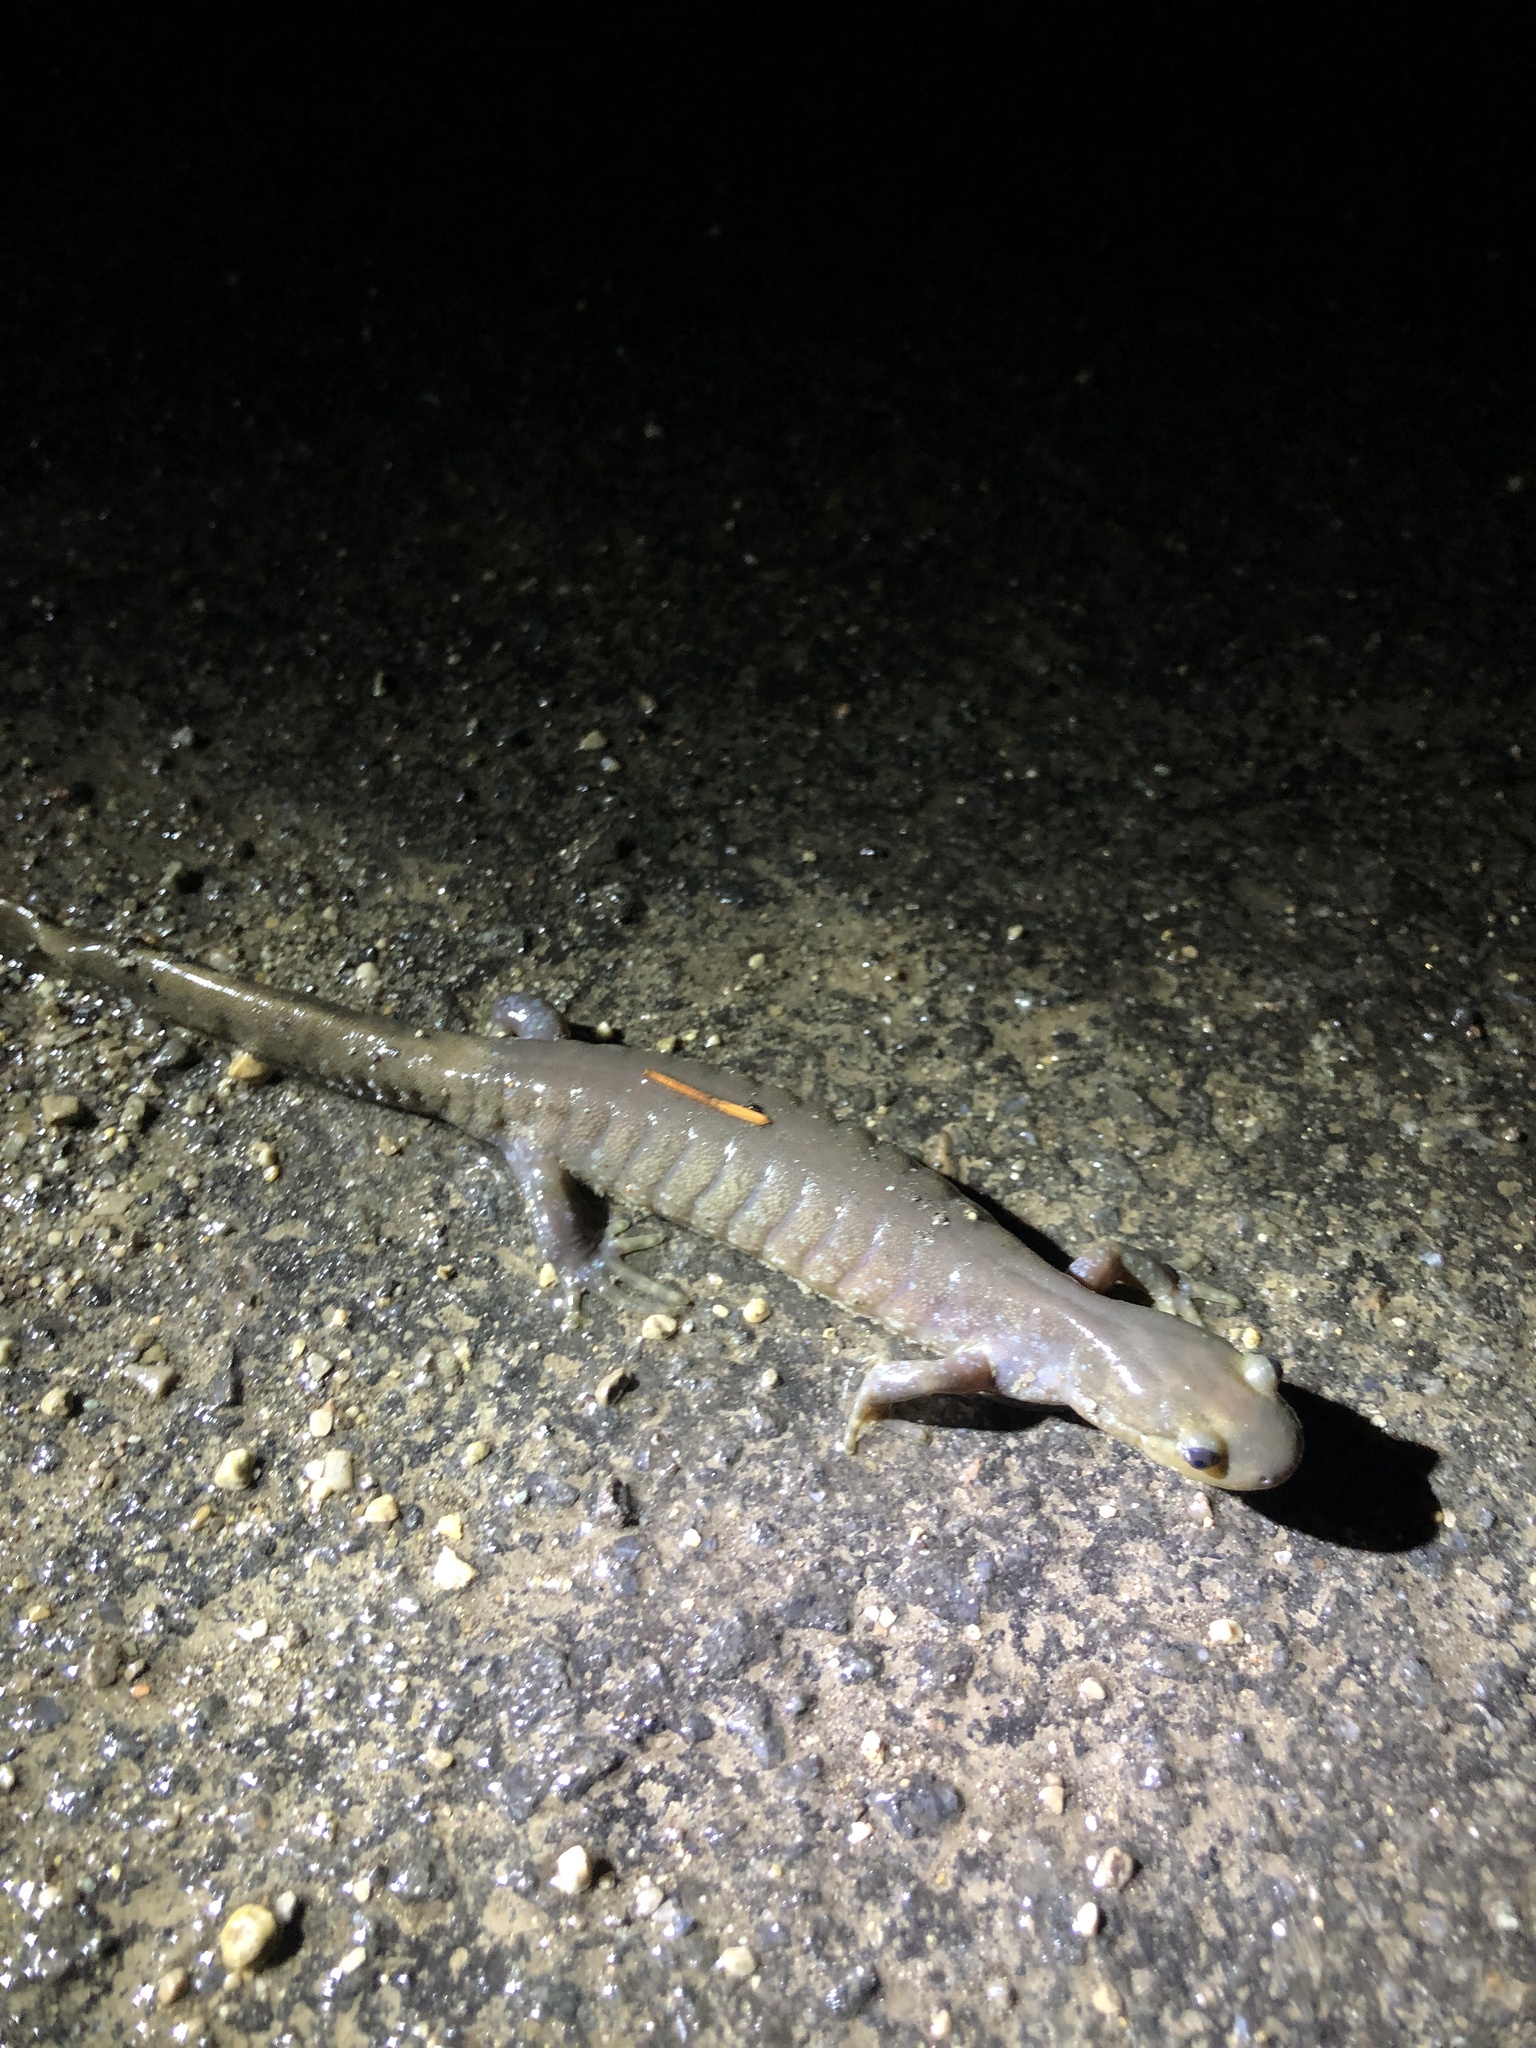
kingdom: Animalia
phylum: Chordata
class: Amphibia
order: Caudata
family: Ambystomatidae
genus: Ambystoma
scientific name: Ambystoma jeffersonianum
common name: Jefferson salamander
